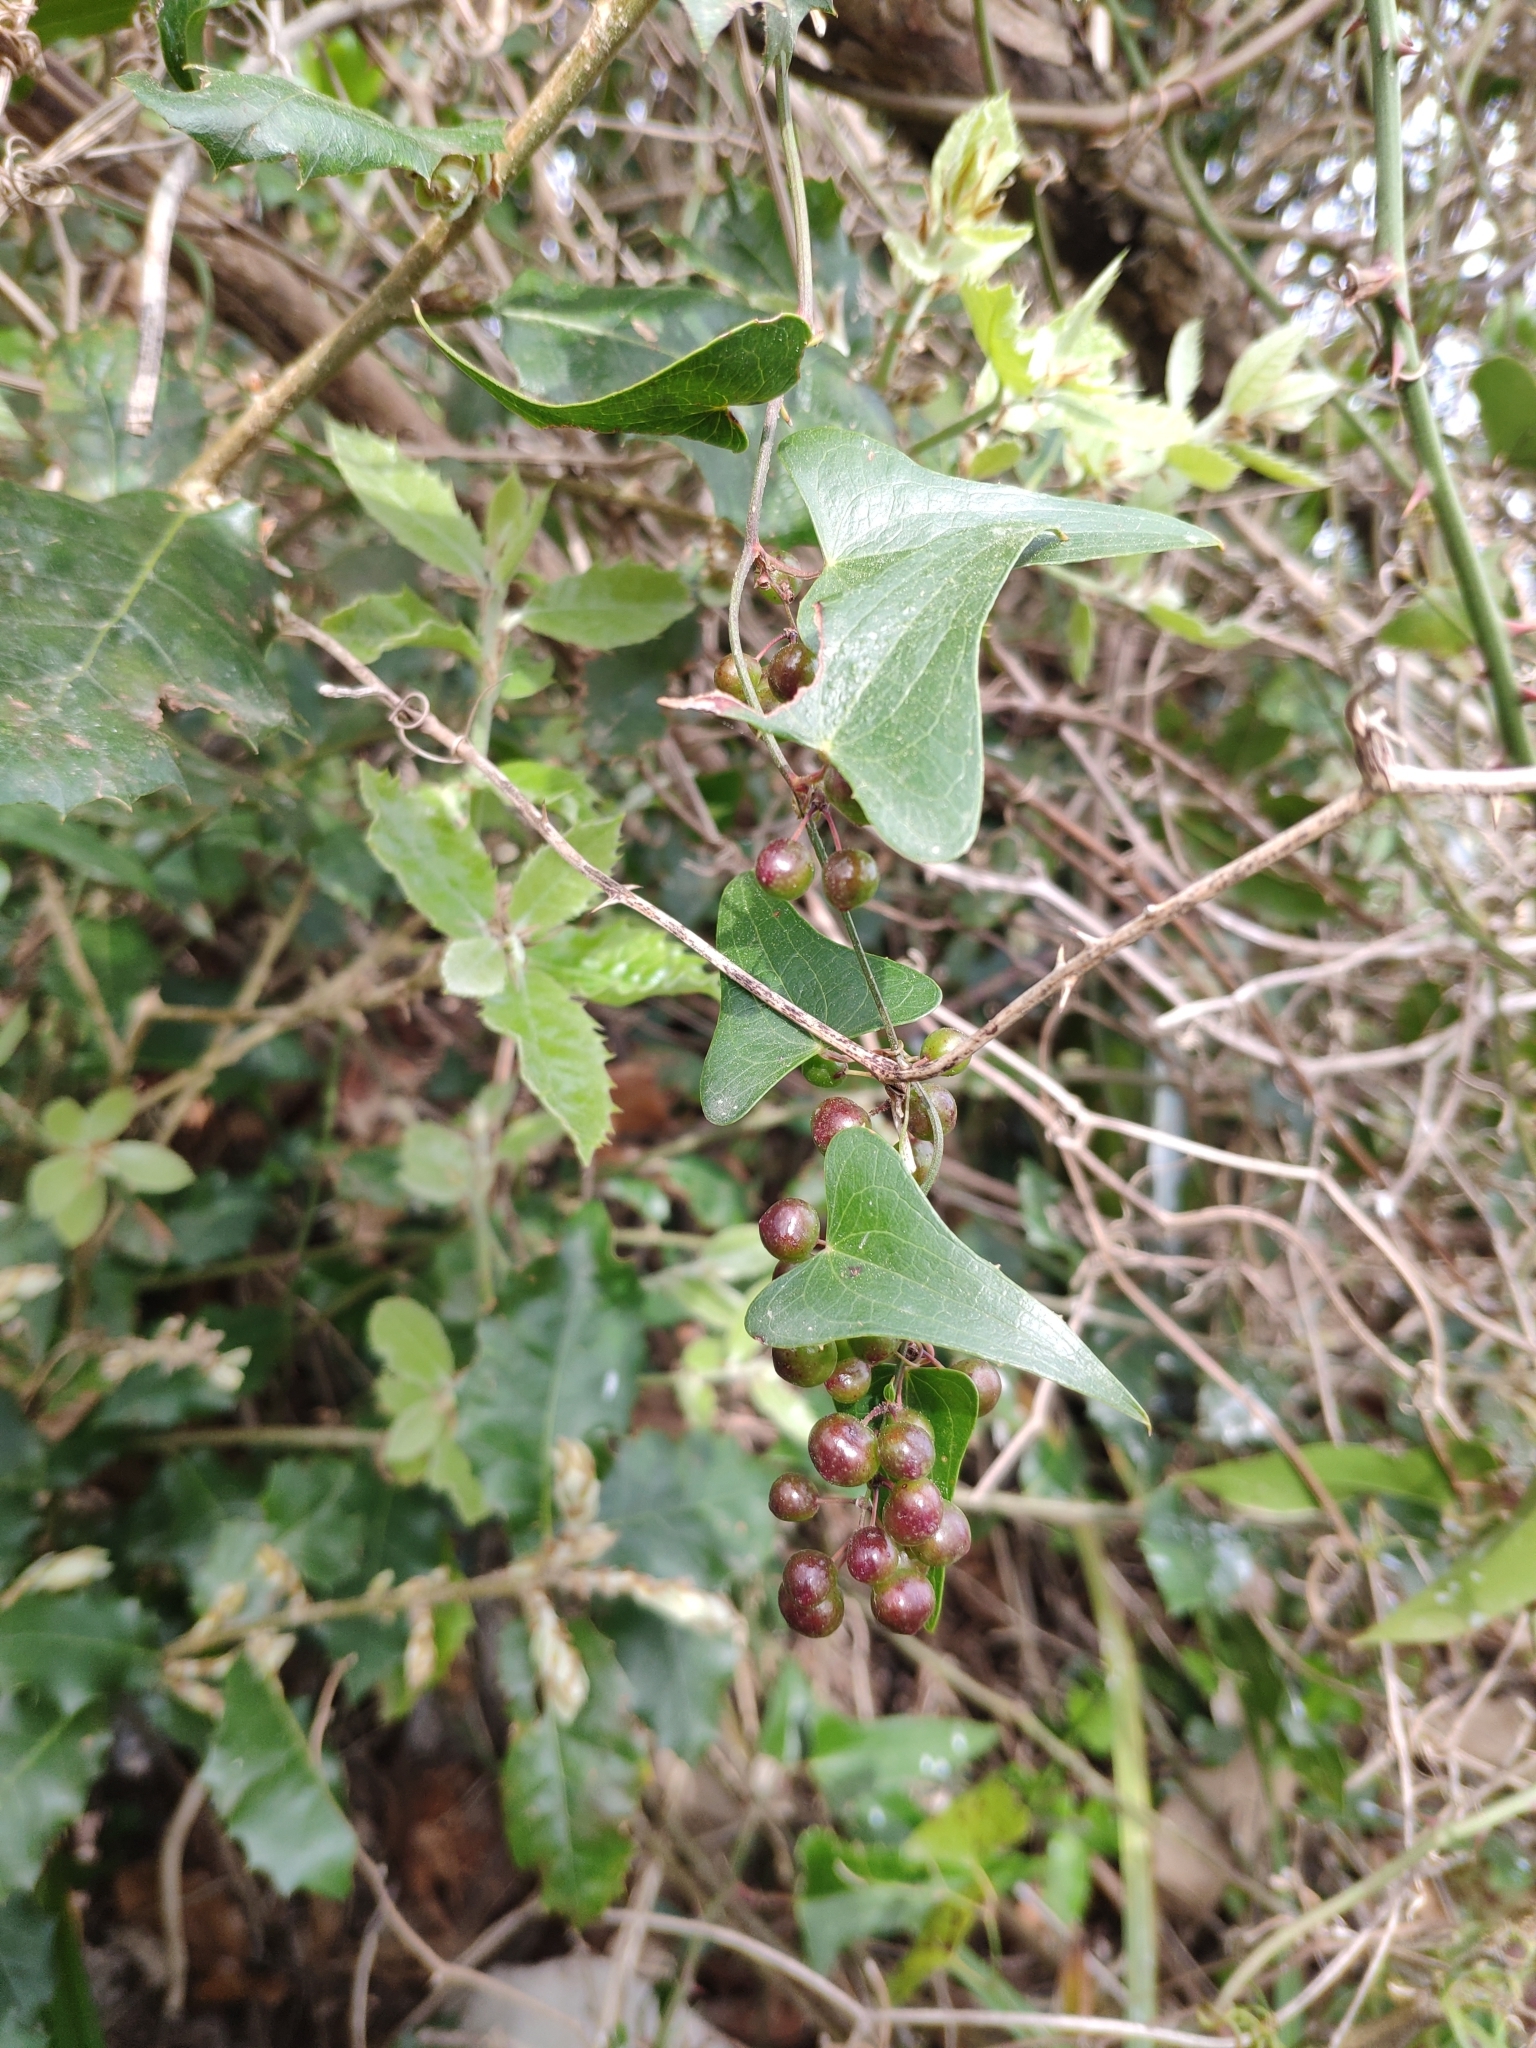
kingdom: Plantae
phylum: Tracheophyta
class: Liliopsida
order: Liliales
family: Smilacaceae
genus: Smilax
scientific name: Smilax aspera
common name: Common smilax
